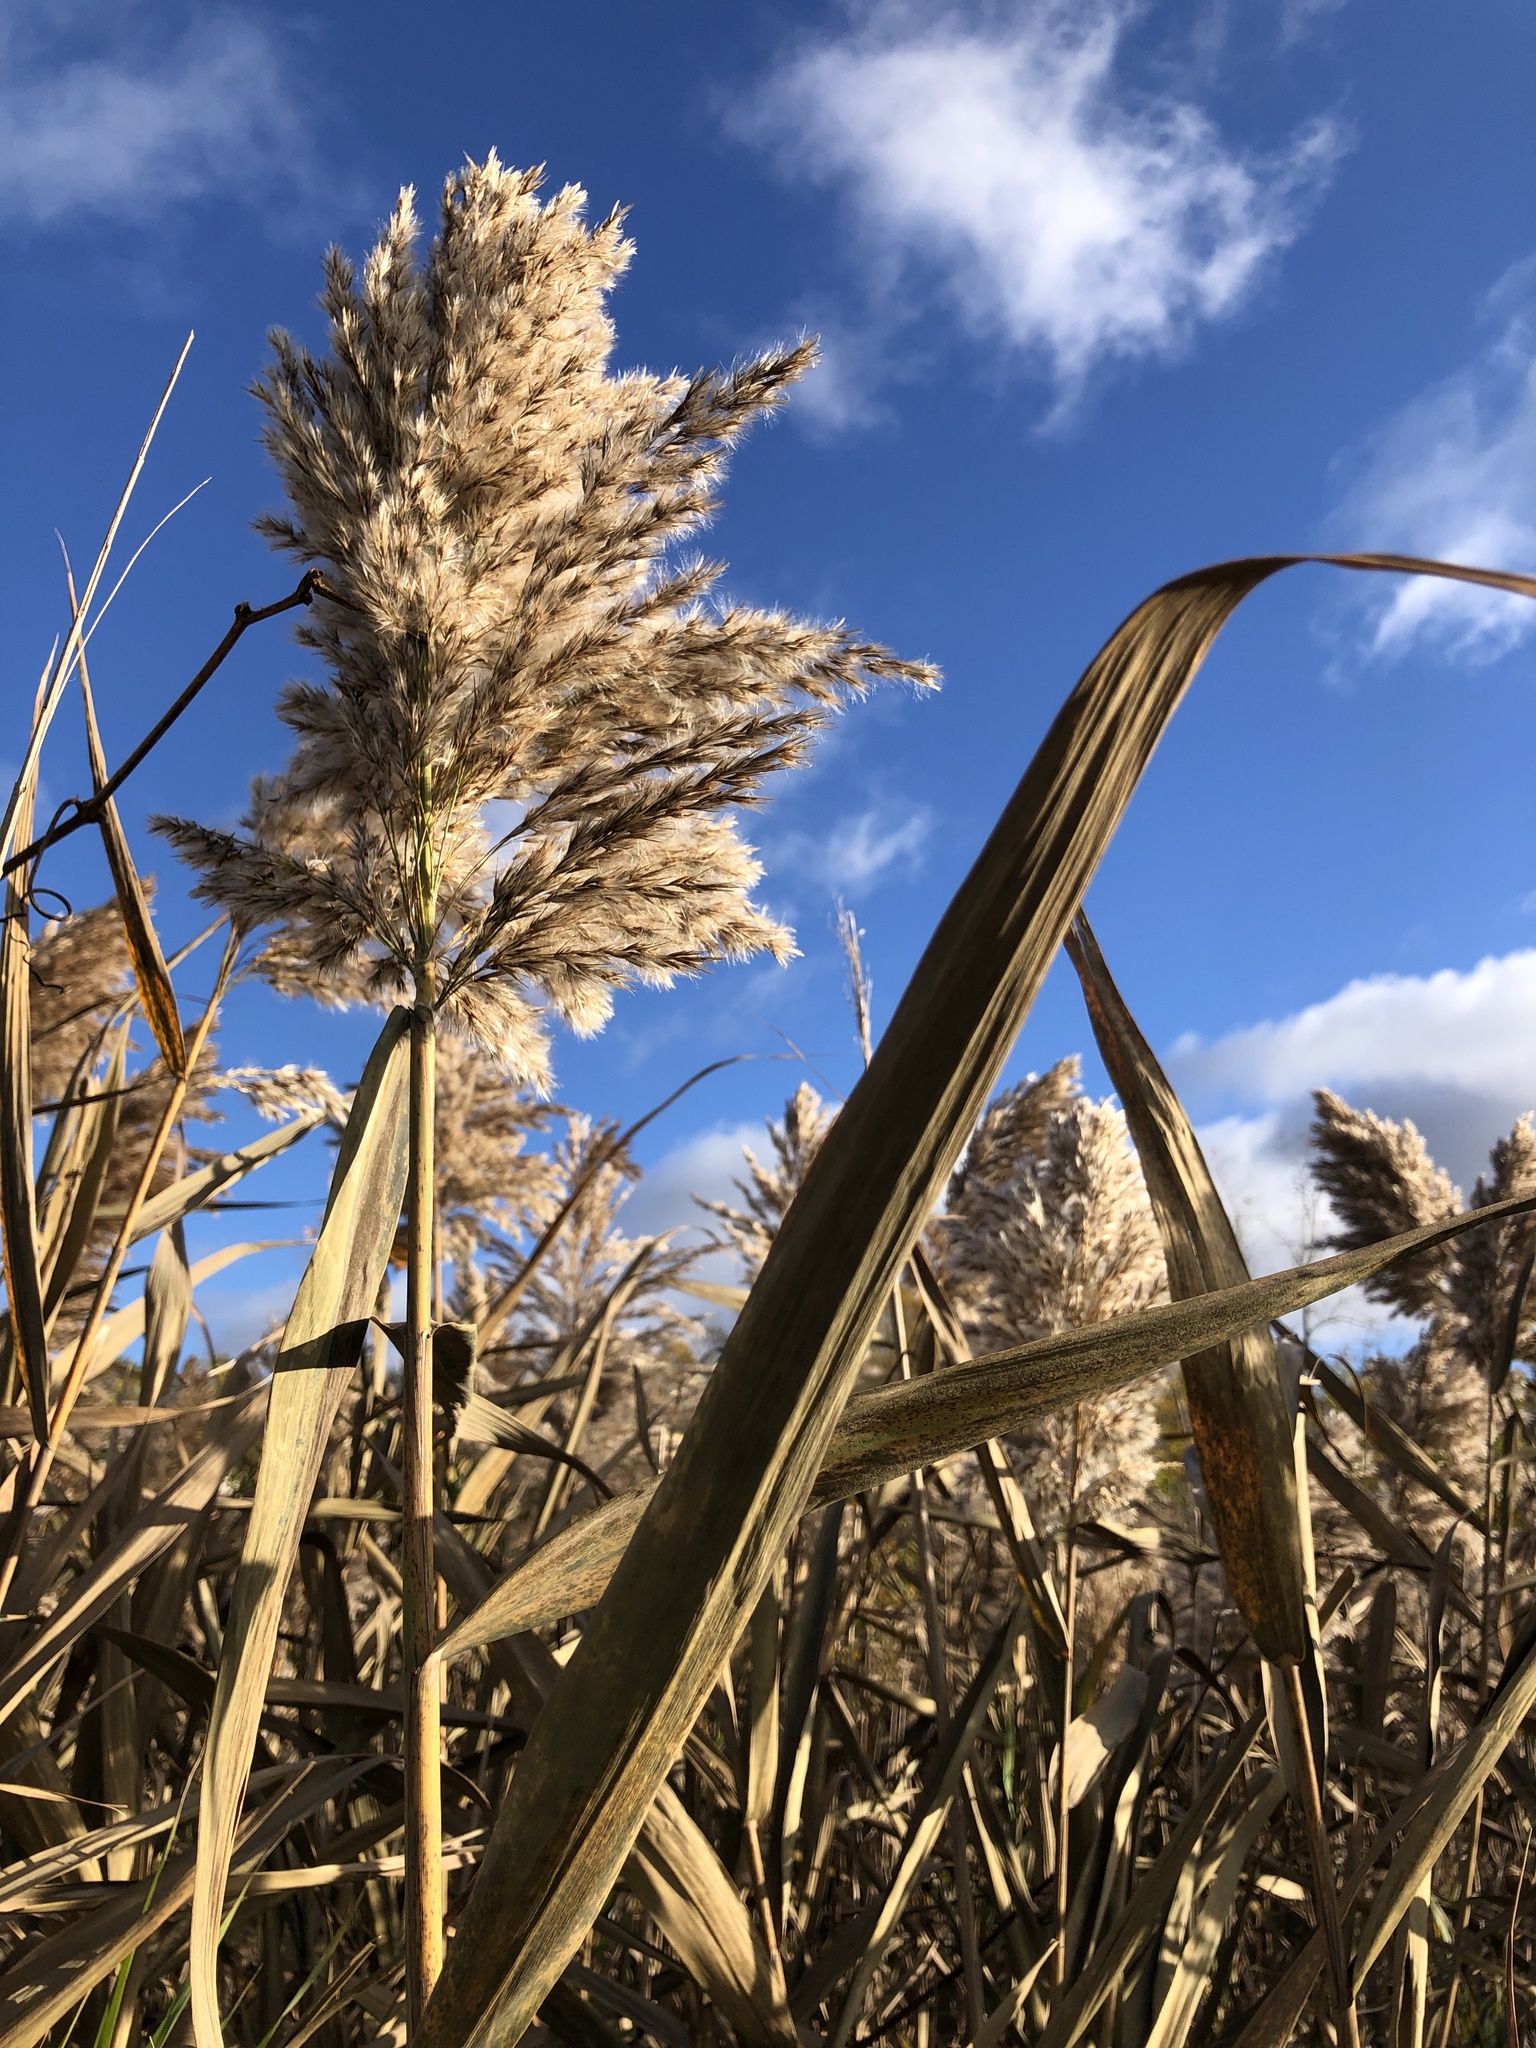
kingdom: Plantae
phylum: Tracheophyta
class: Liliopsida
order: Poales
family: Poaceae
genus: Phragmites
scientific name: Phragmites australis
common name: Common reed
